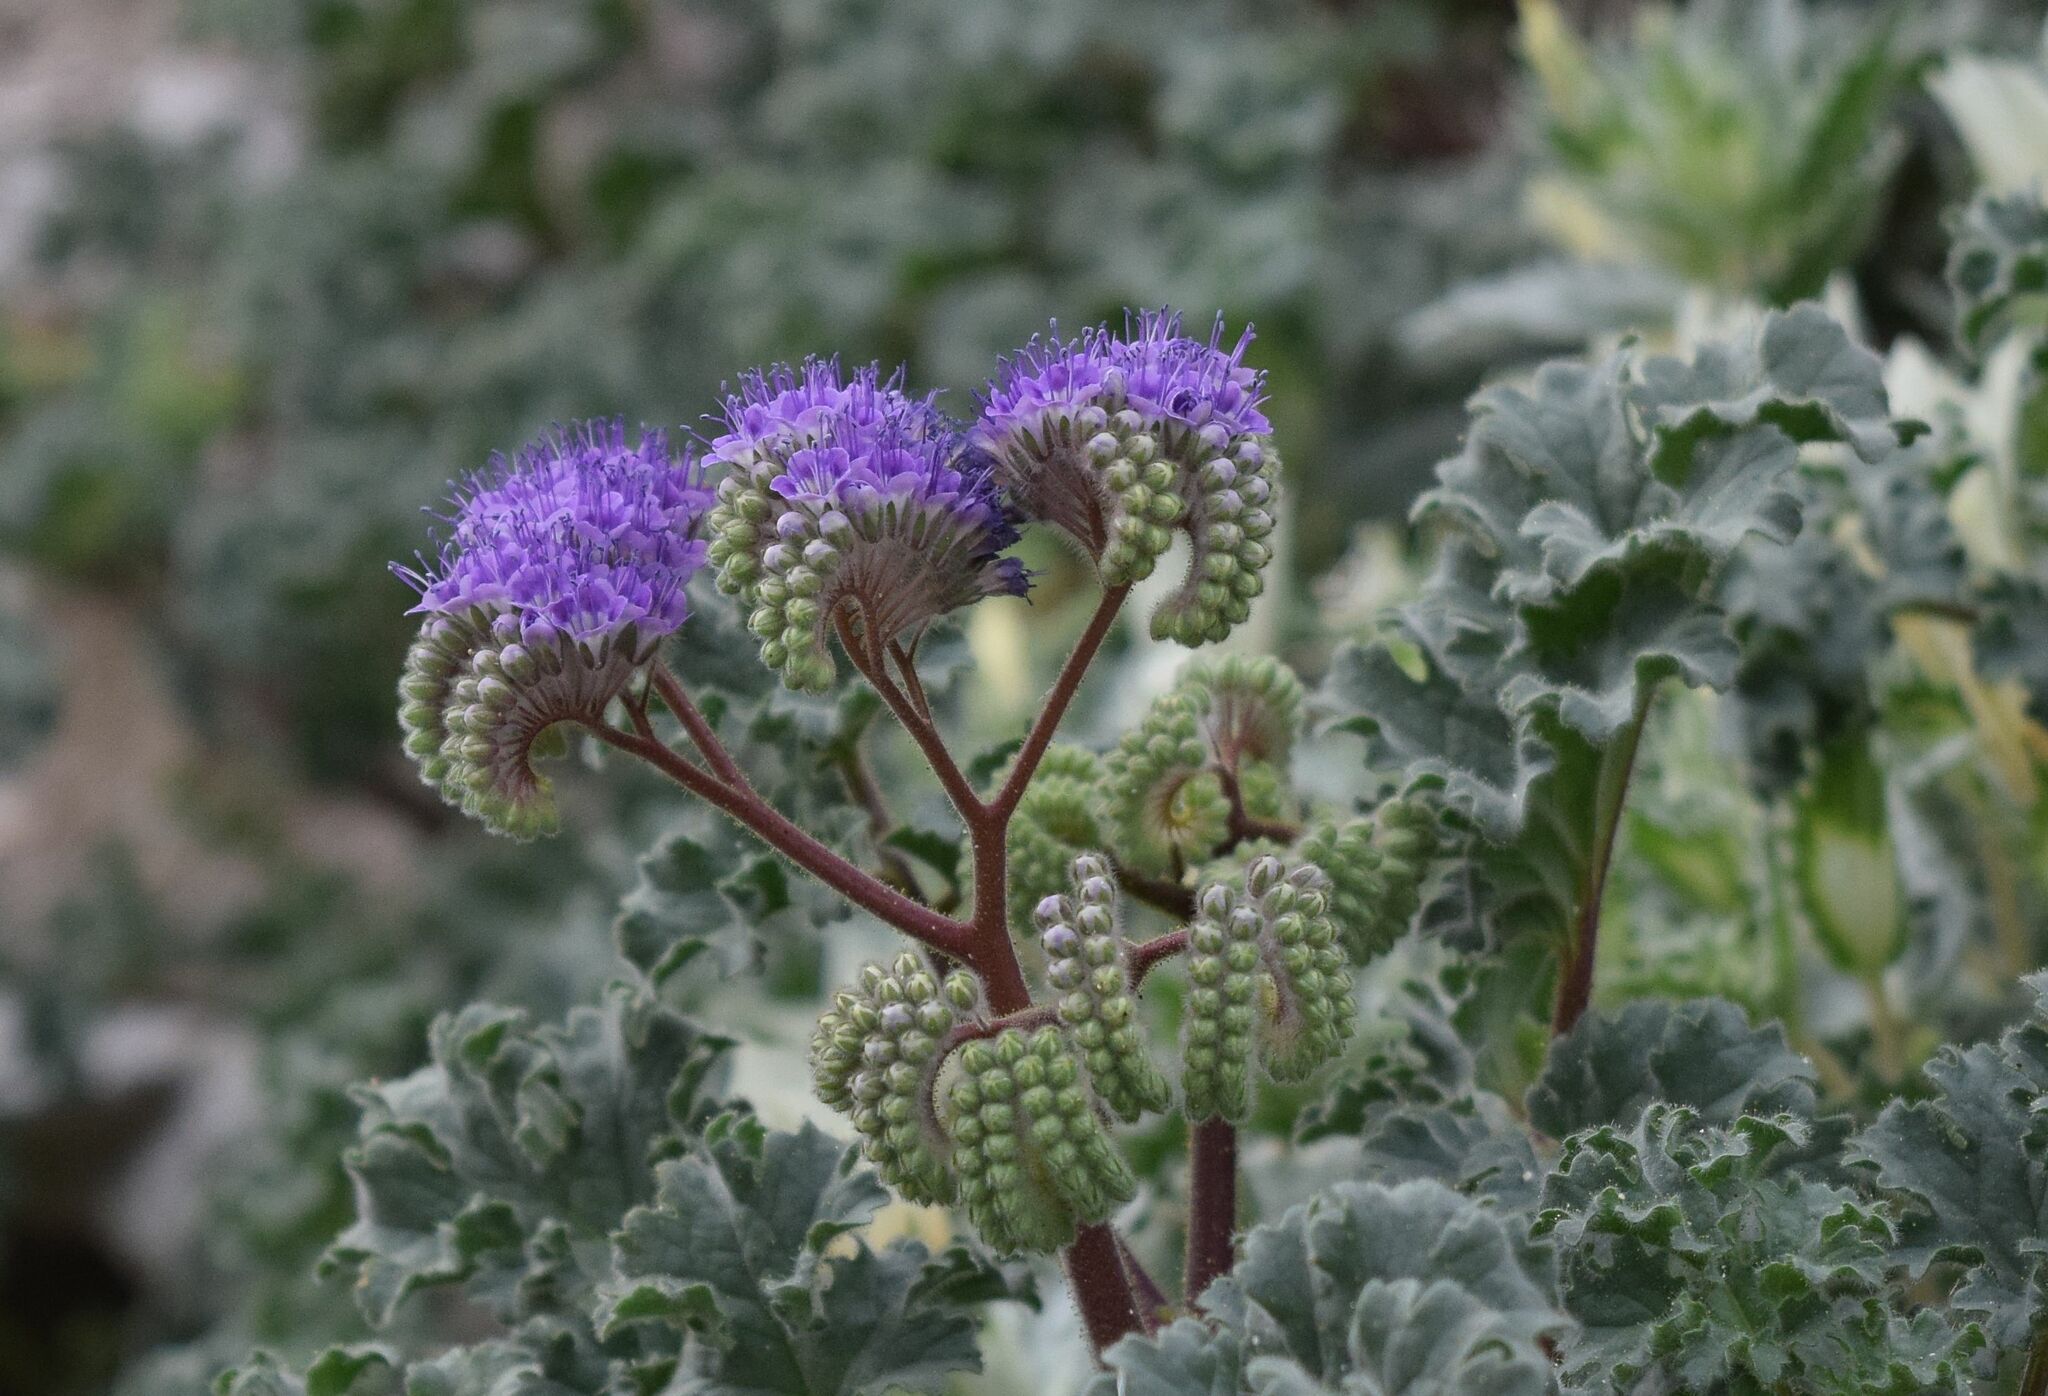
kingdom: Plantae
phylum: Tracheophyta
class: Magnoliopsida
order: Boraginales
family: Hydrophyllaceae
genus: Phacelia
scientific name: Phacelia pedicellata
